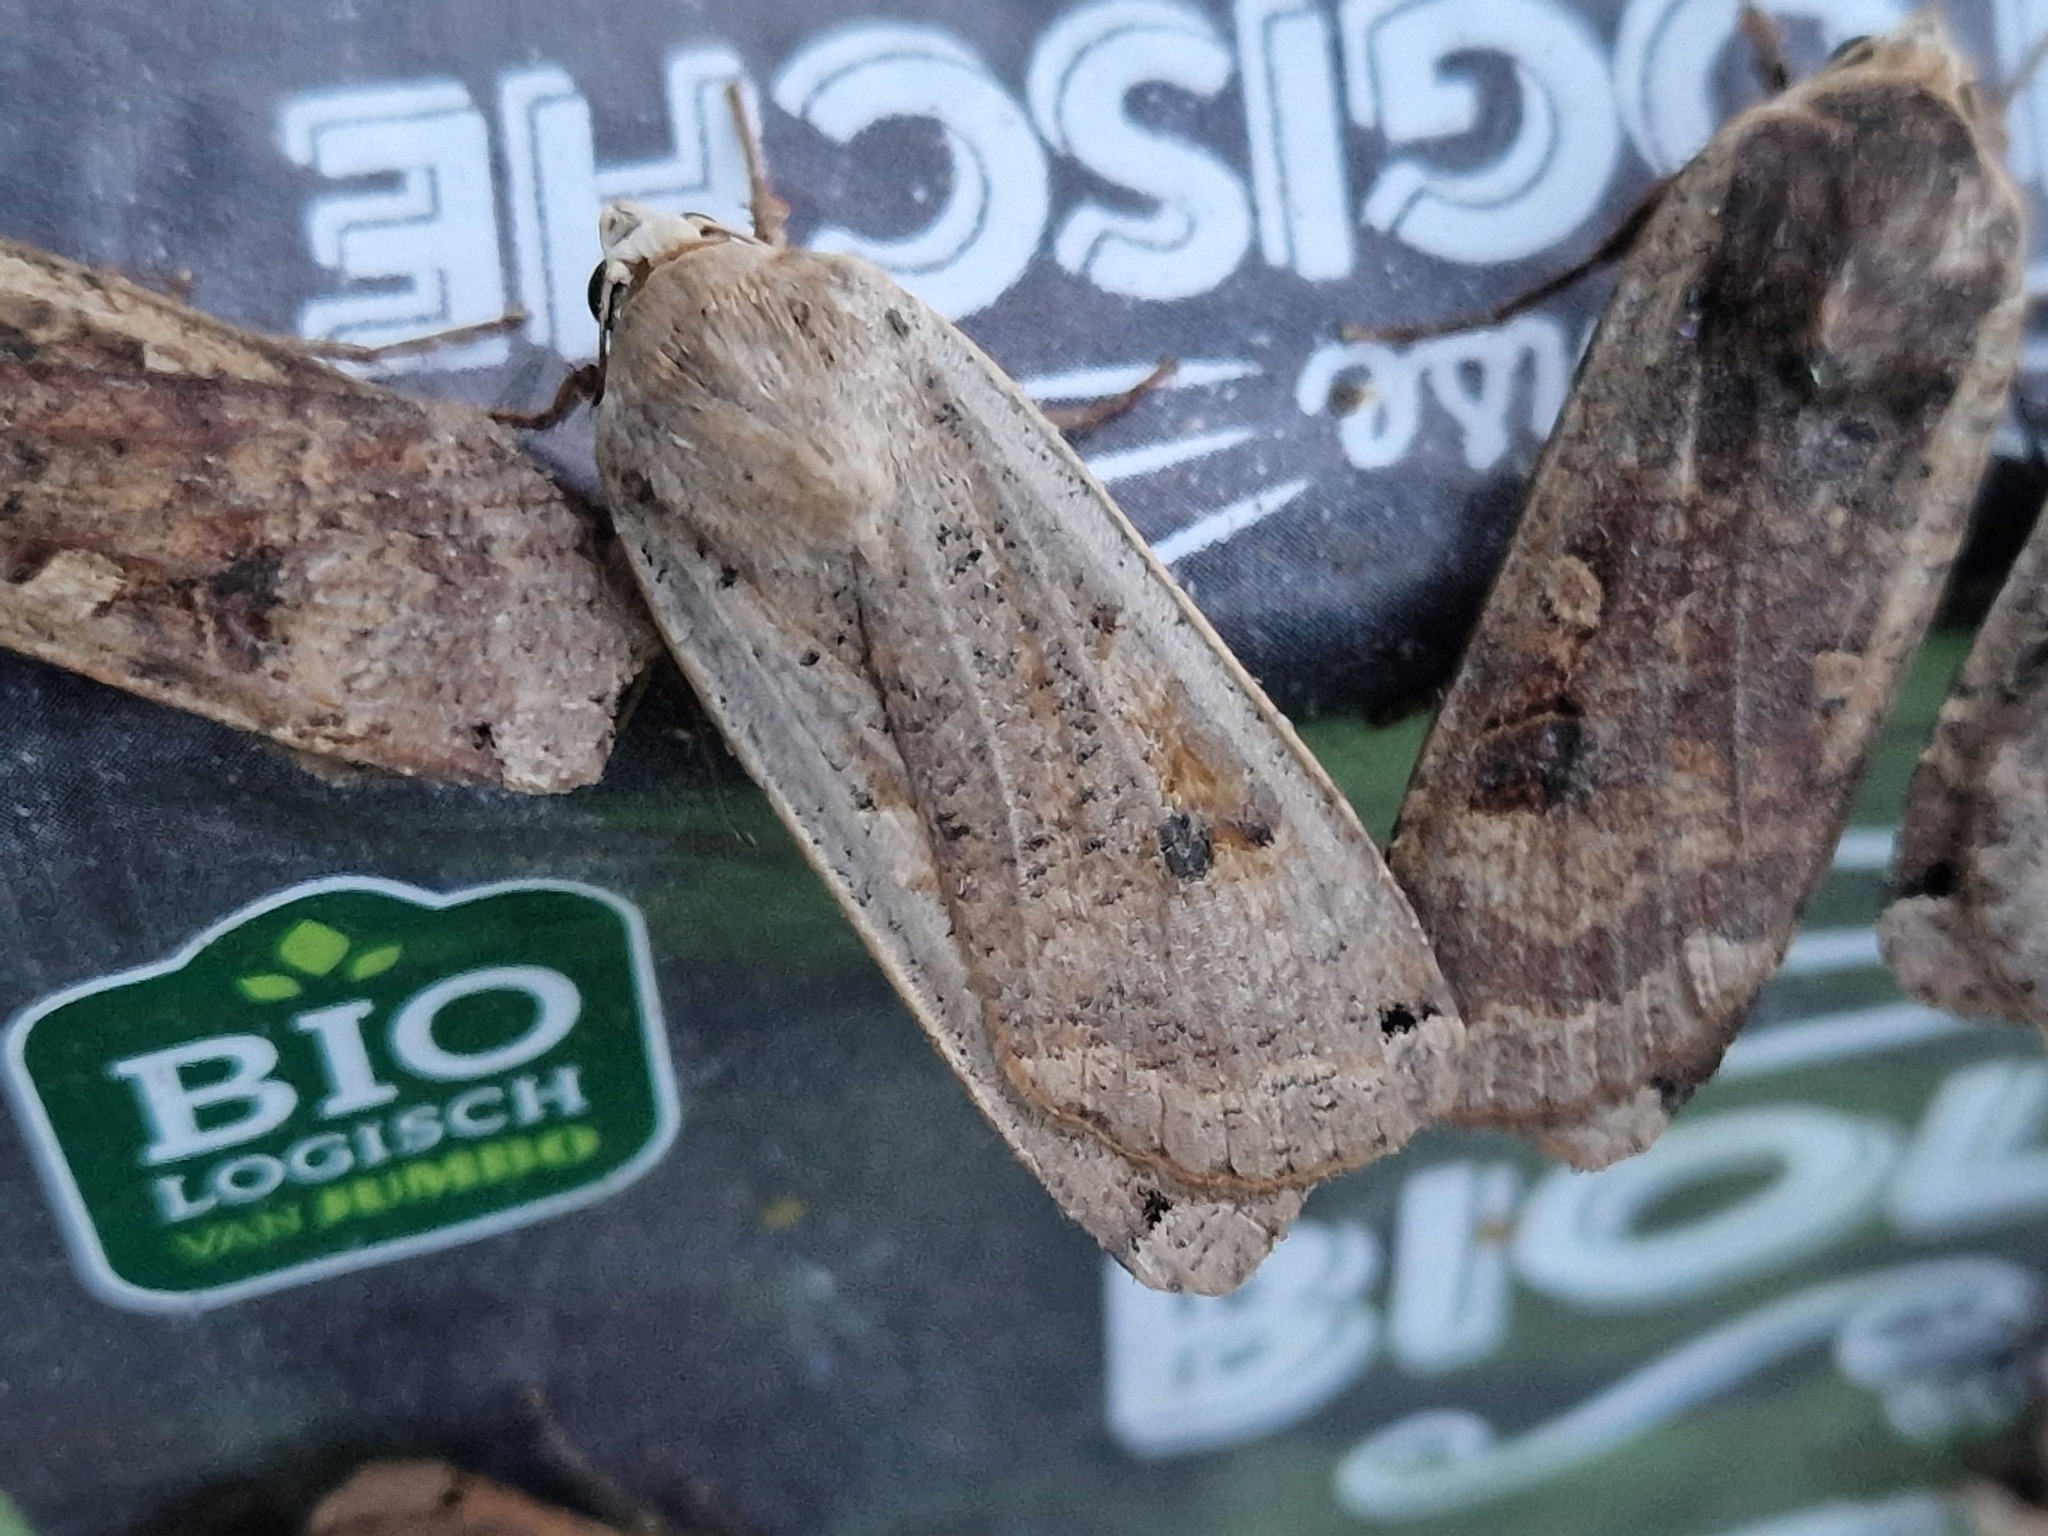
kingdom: Animalia
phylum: Arthropoda
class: Insecta
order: Lepidoptera
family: Noctuidae
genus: Noctua
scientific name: Noctua pronuba
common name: Large yellow underwing
